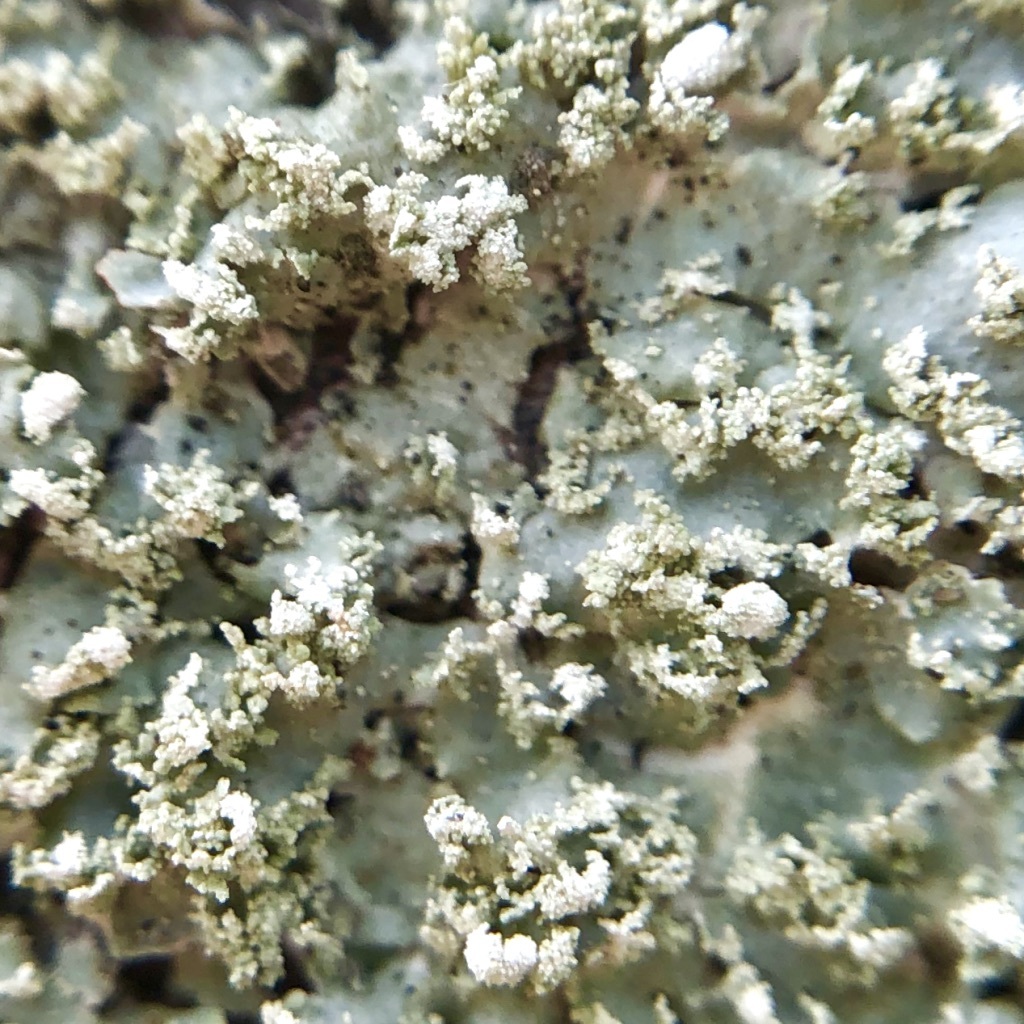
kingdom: Fungi
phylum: Ascomycota
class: Lecanoromycetes
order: Lecanorales
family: Parmeliaceae
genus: Punctelia
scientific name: Punctelia rudecta
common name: Rough speckled shield lichen
